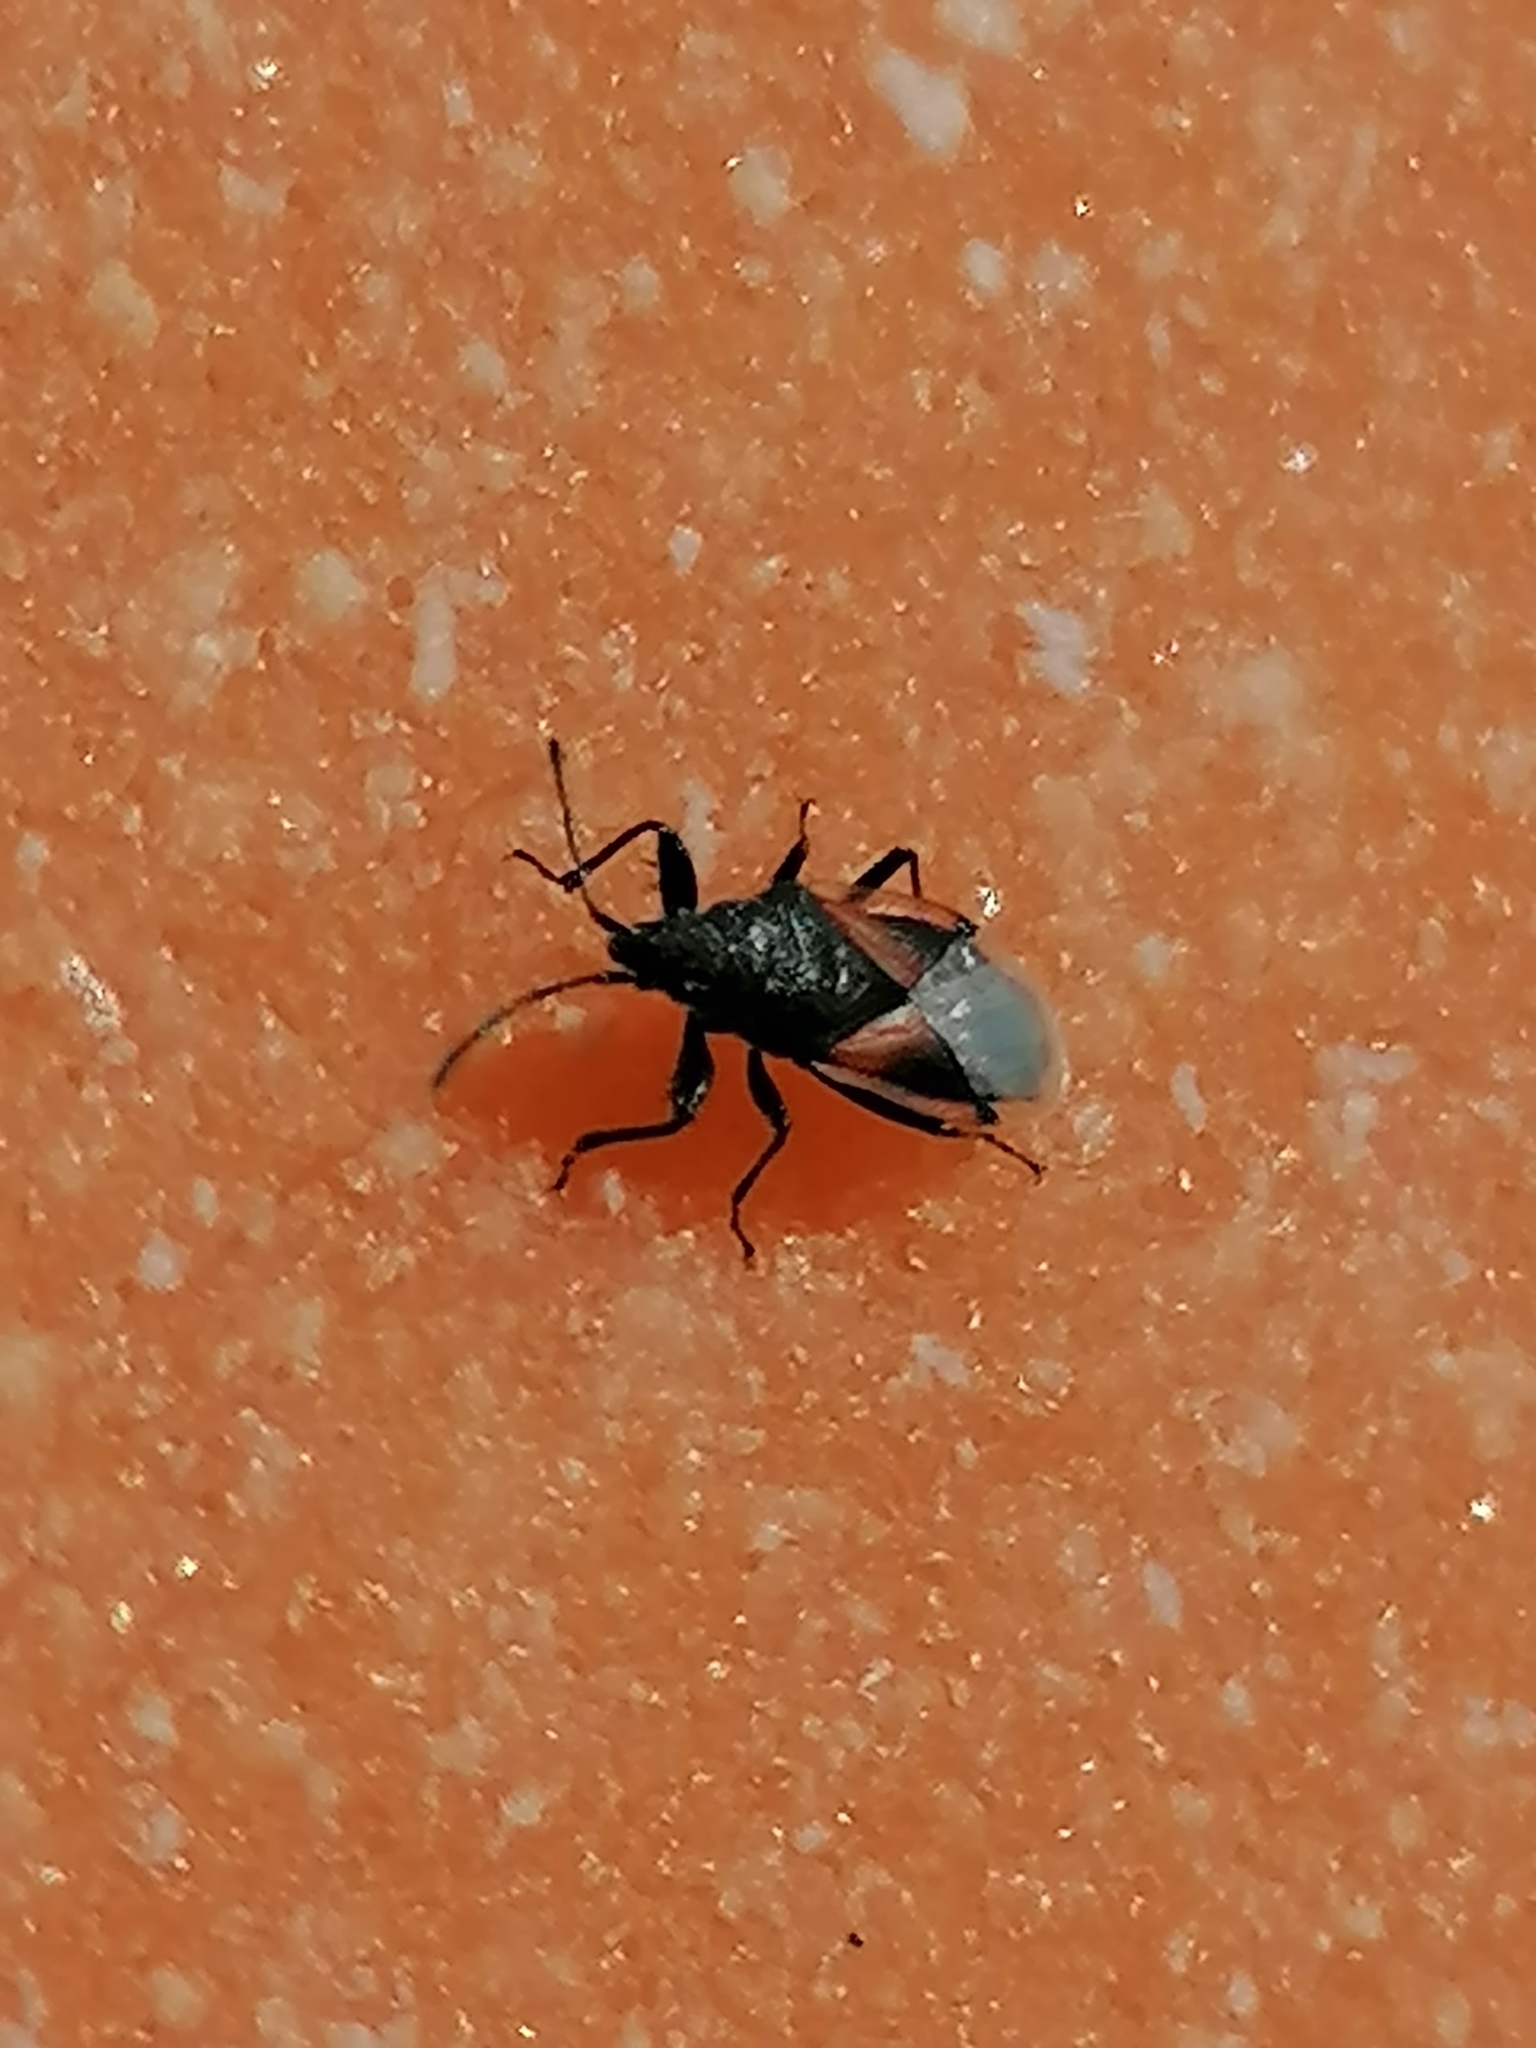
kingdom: Animalia
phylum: Arthropoda
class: Insecta
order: Hemiptera
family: Oxycarenidae
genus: Oxycarenus
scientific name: Oxycarenus lavaterae
